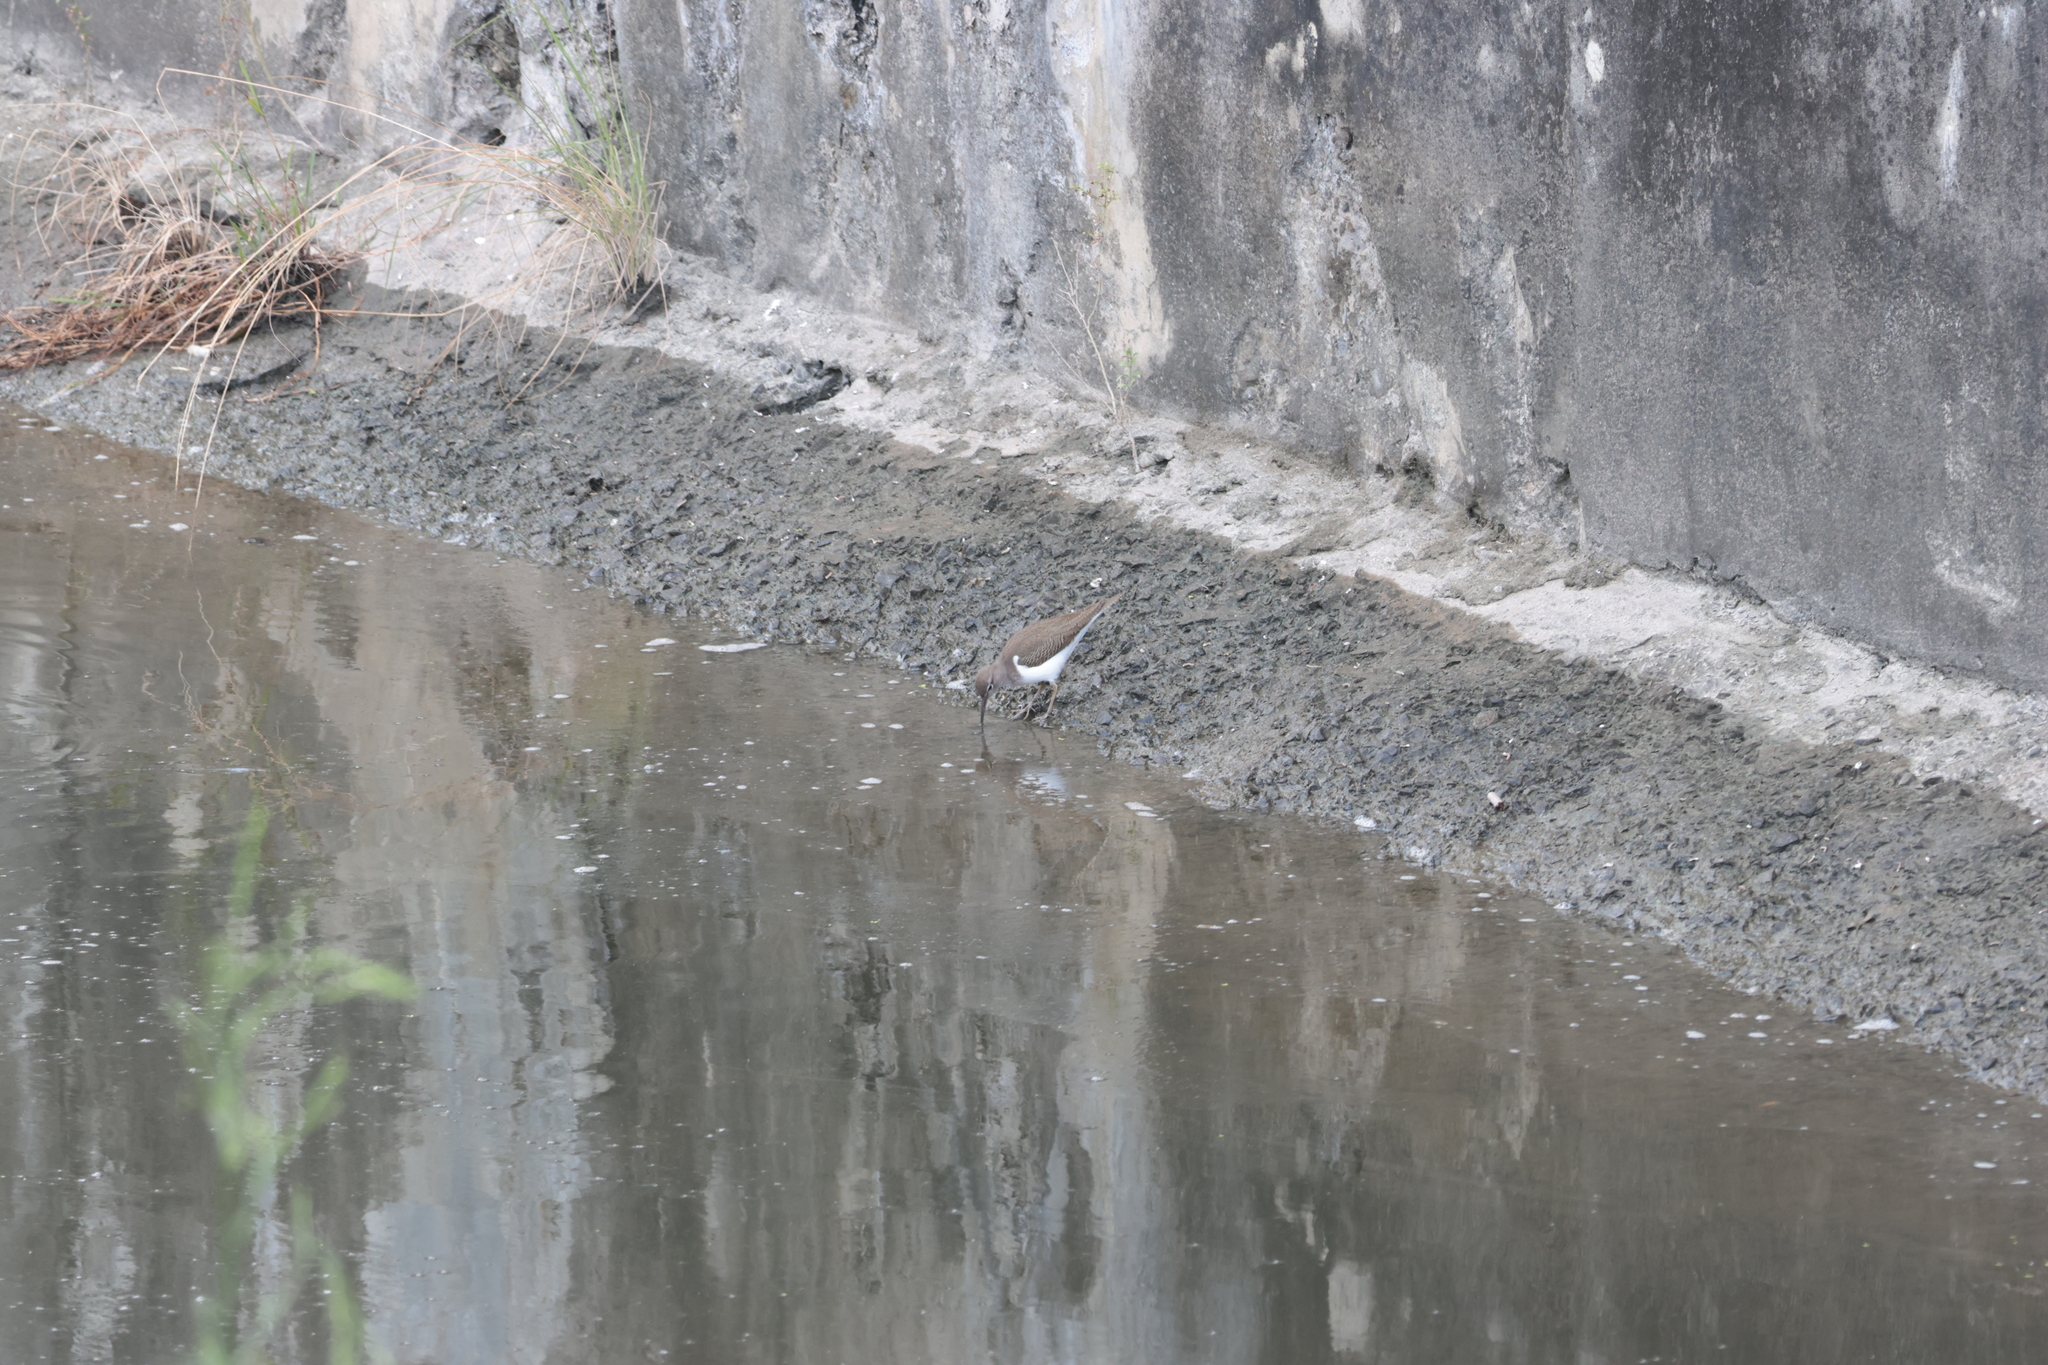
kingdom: Animalia
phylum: Chordata
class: Aves
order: Charadriiformes
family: Scolopacidae
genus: Actitis
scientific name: Actitis hypoleucos
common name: Common sandpiper
